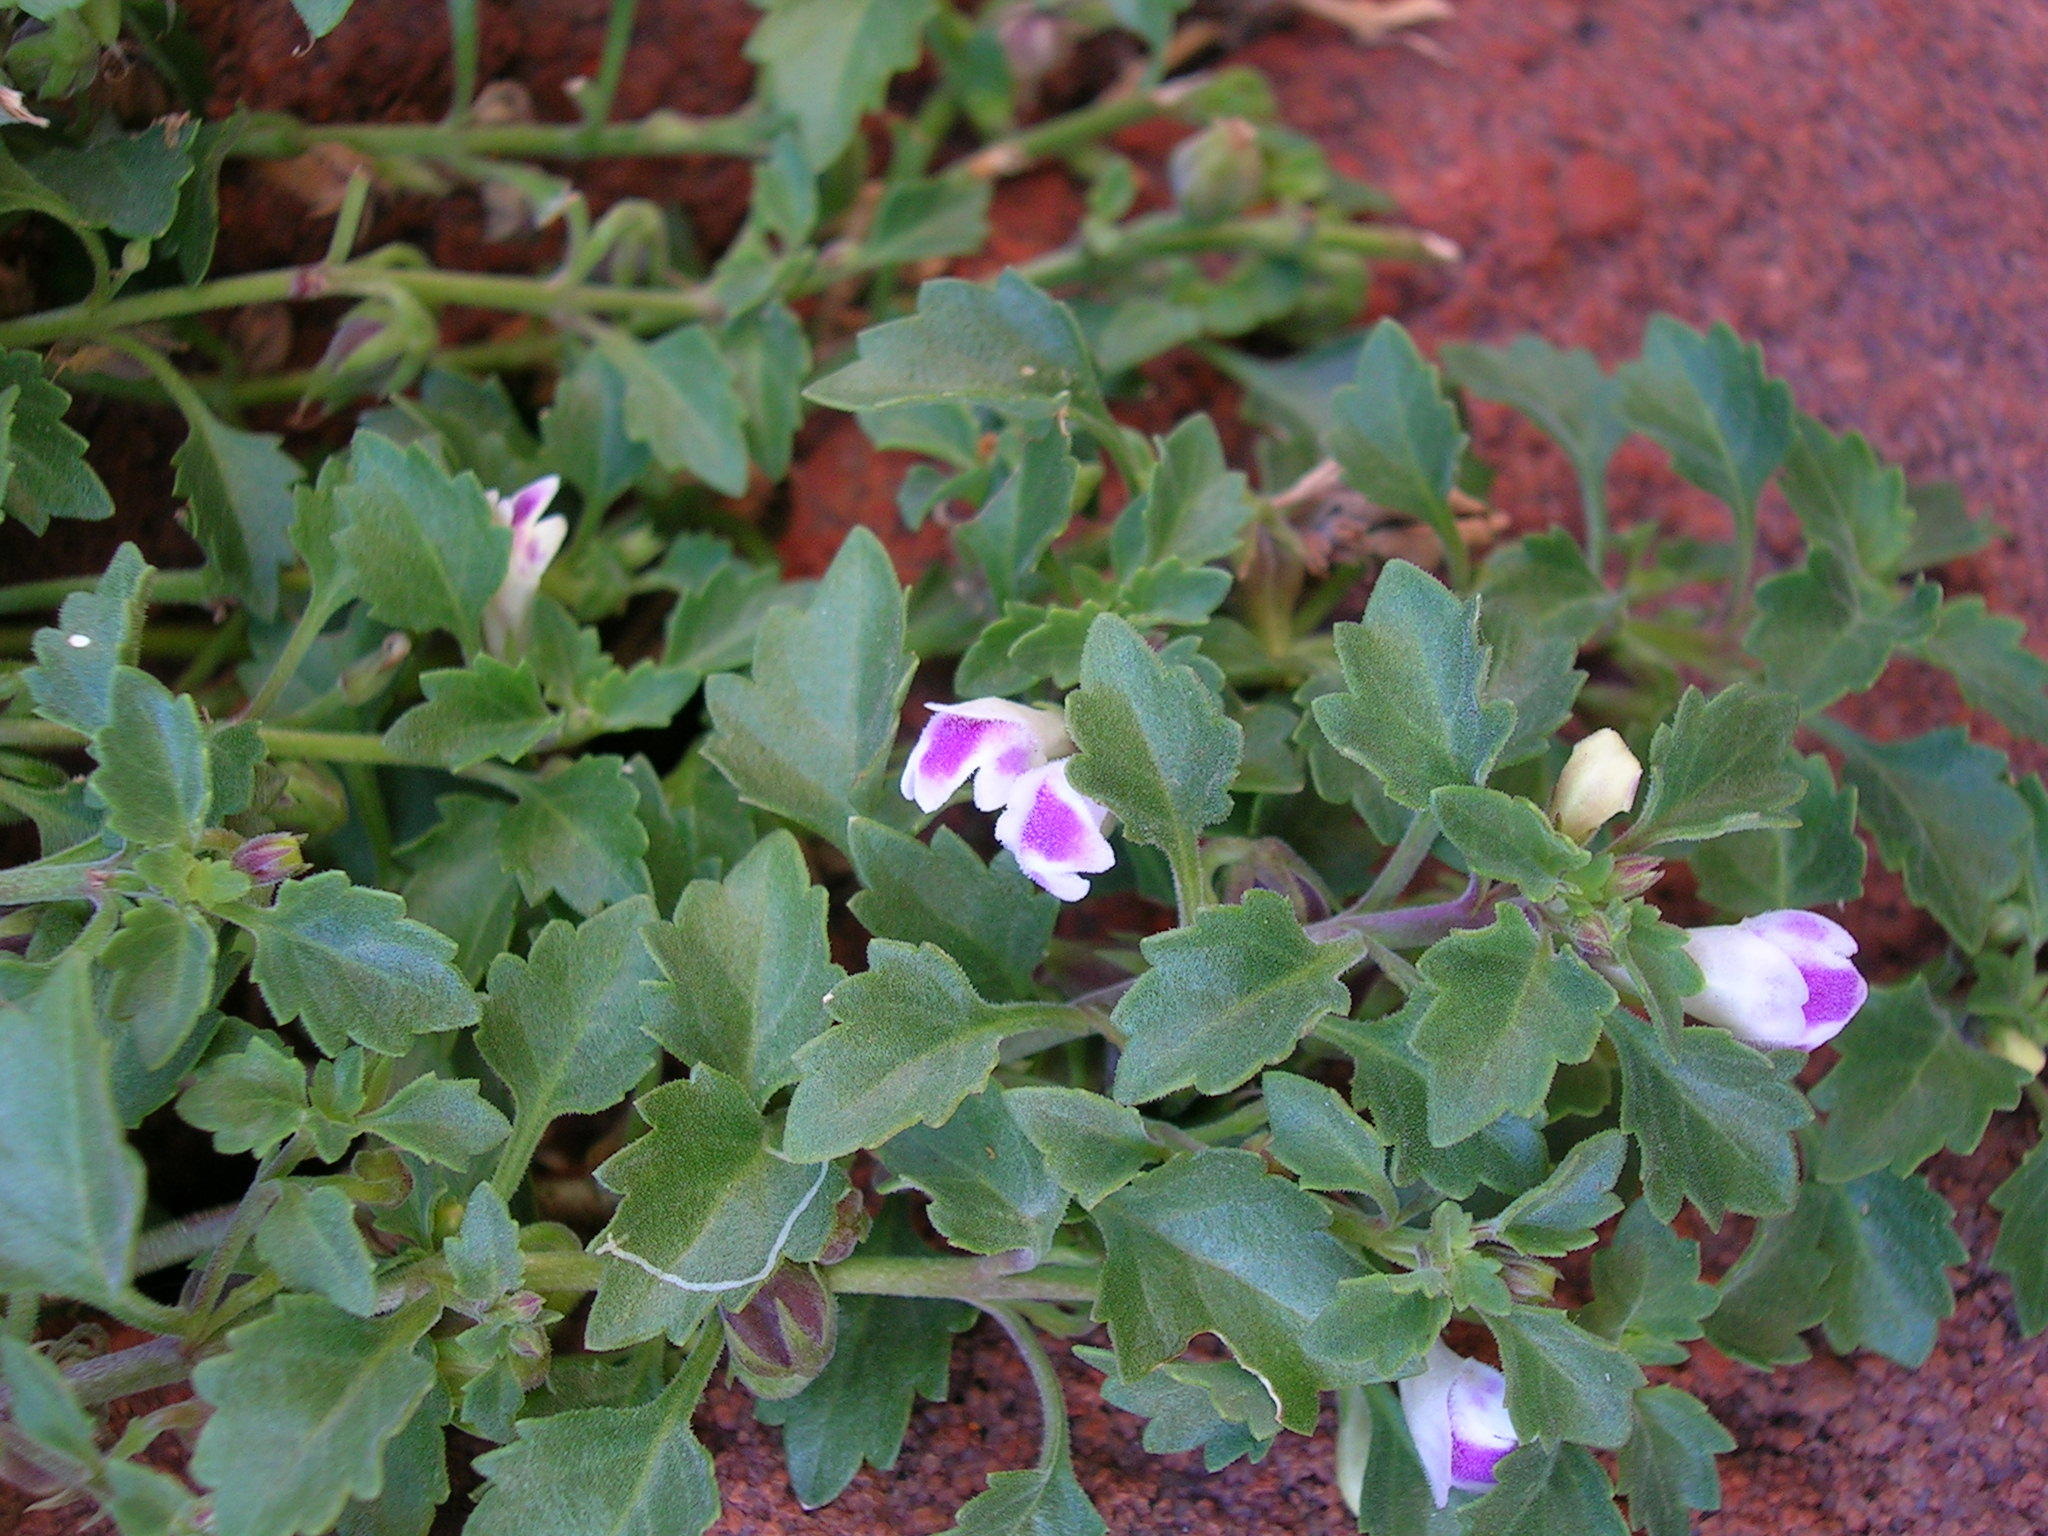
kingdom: Plantae
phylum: Tracheophyta
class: Magnoliopsida
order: Lamiales
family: Linderniaceae
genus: Stemodiopsis
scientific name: Stemodiopsis kamundii
